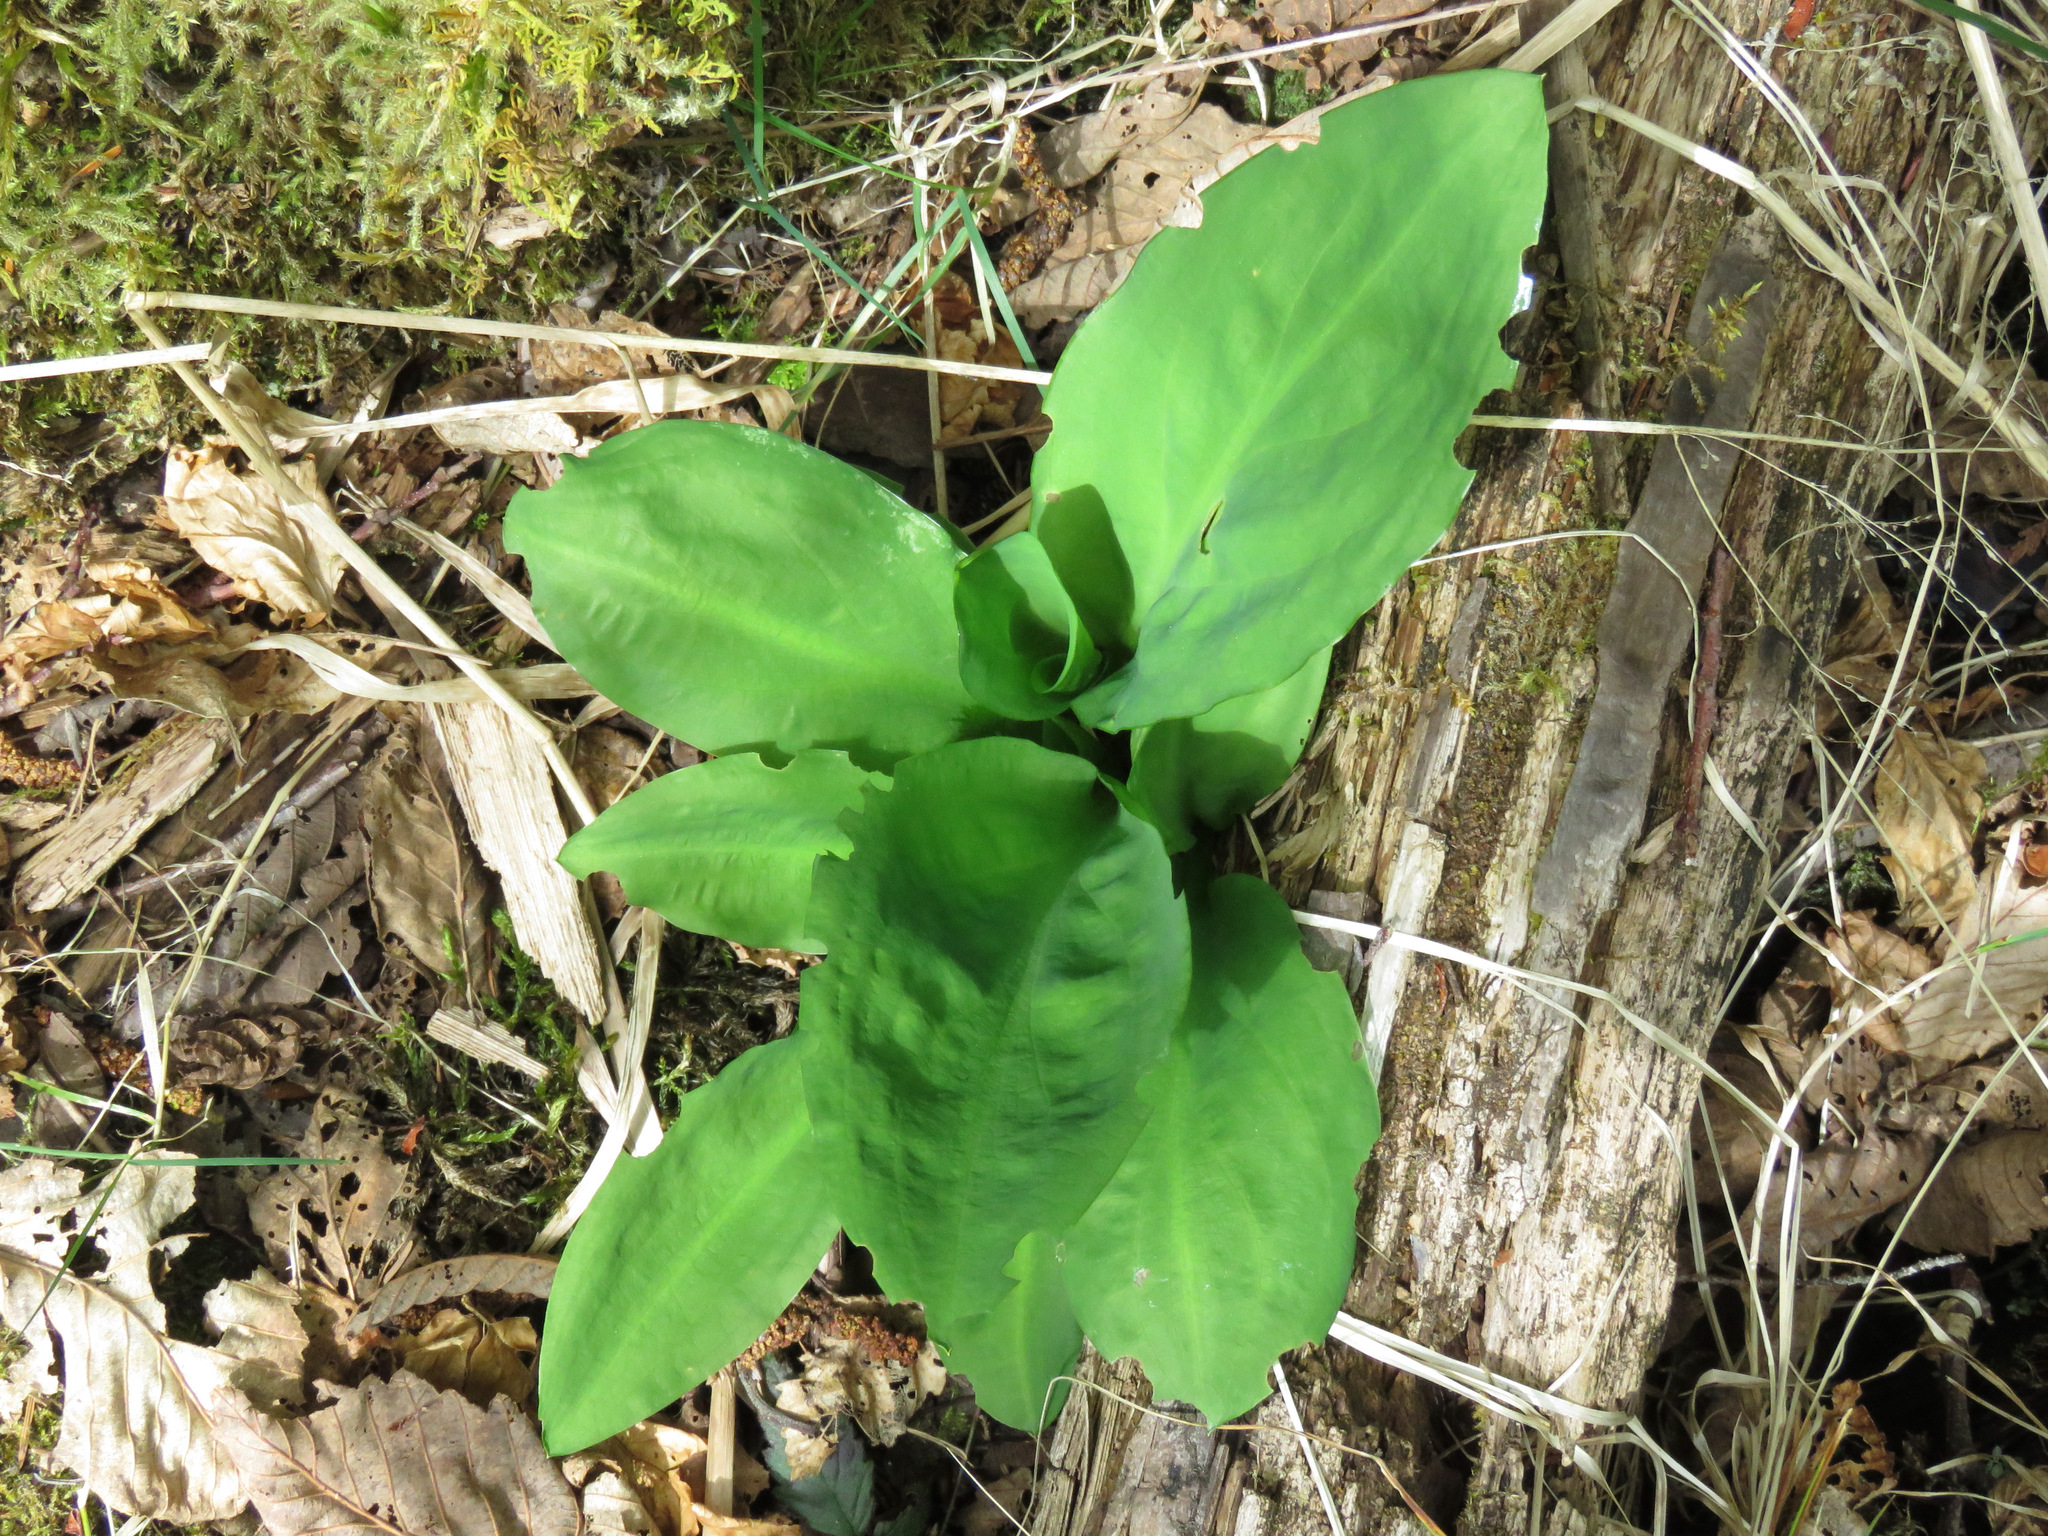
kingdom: Plantae
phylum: Tracheophyta
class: Liliopsida
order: Alismatales
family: Araceae
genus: Lysichiton
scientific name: Lysichiton americanus
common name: American skunk cabbage
